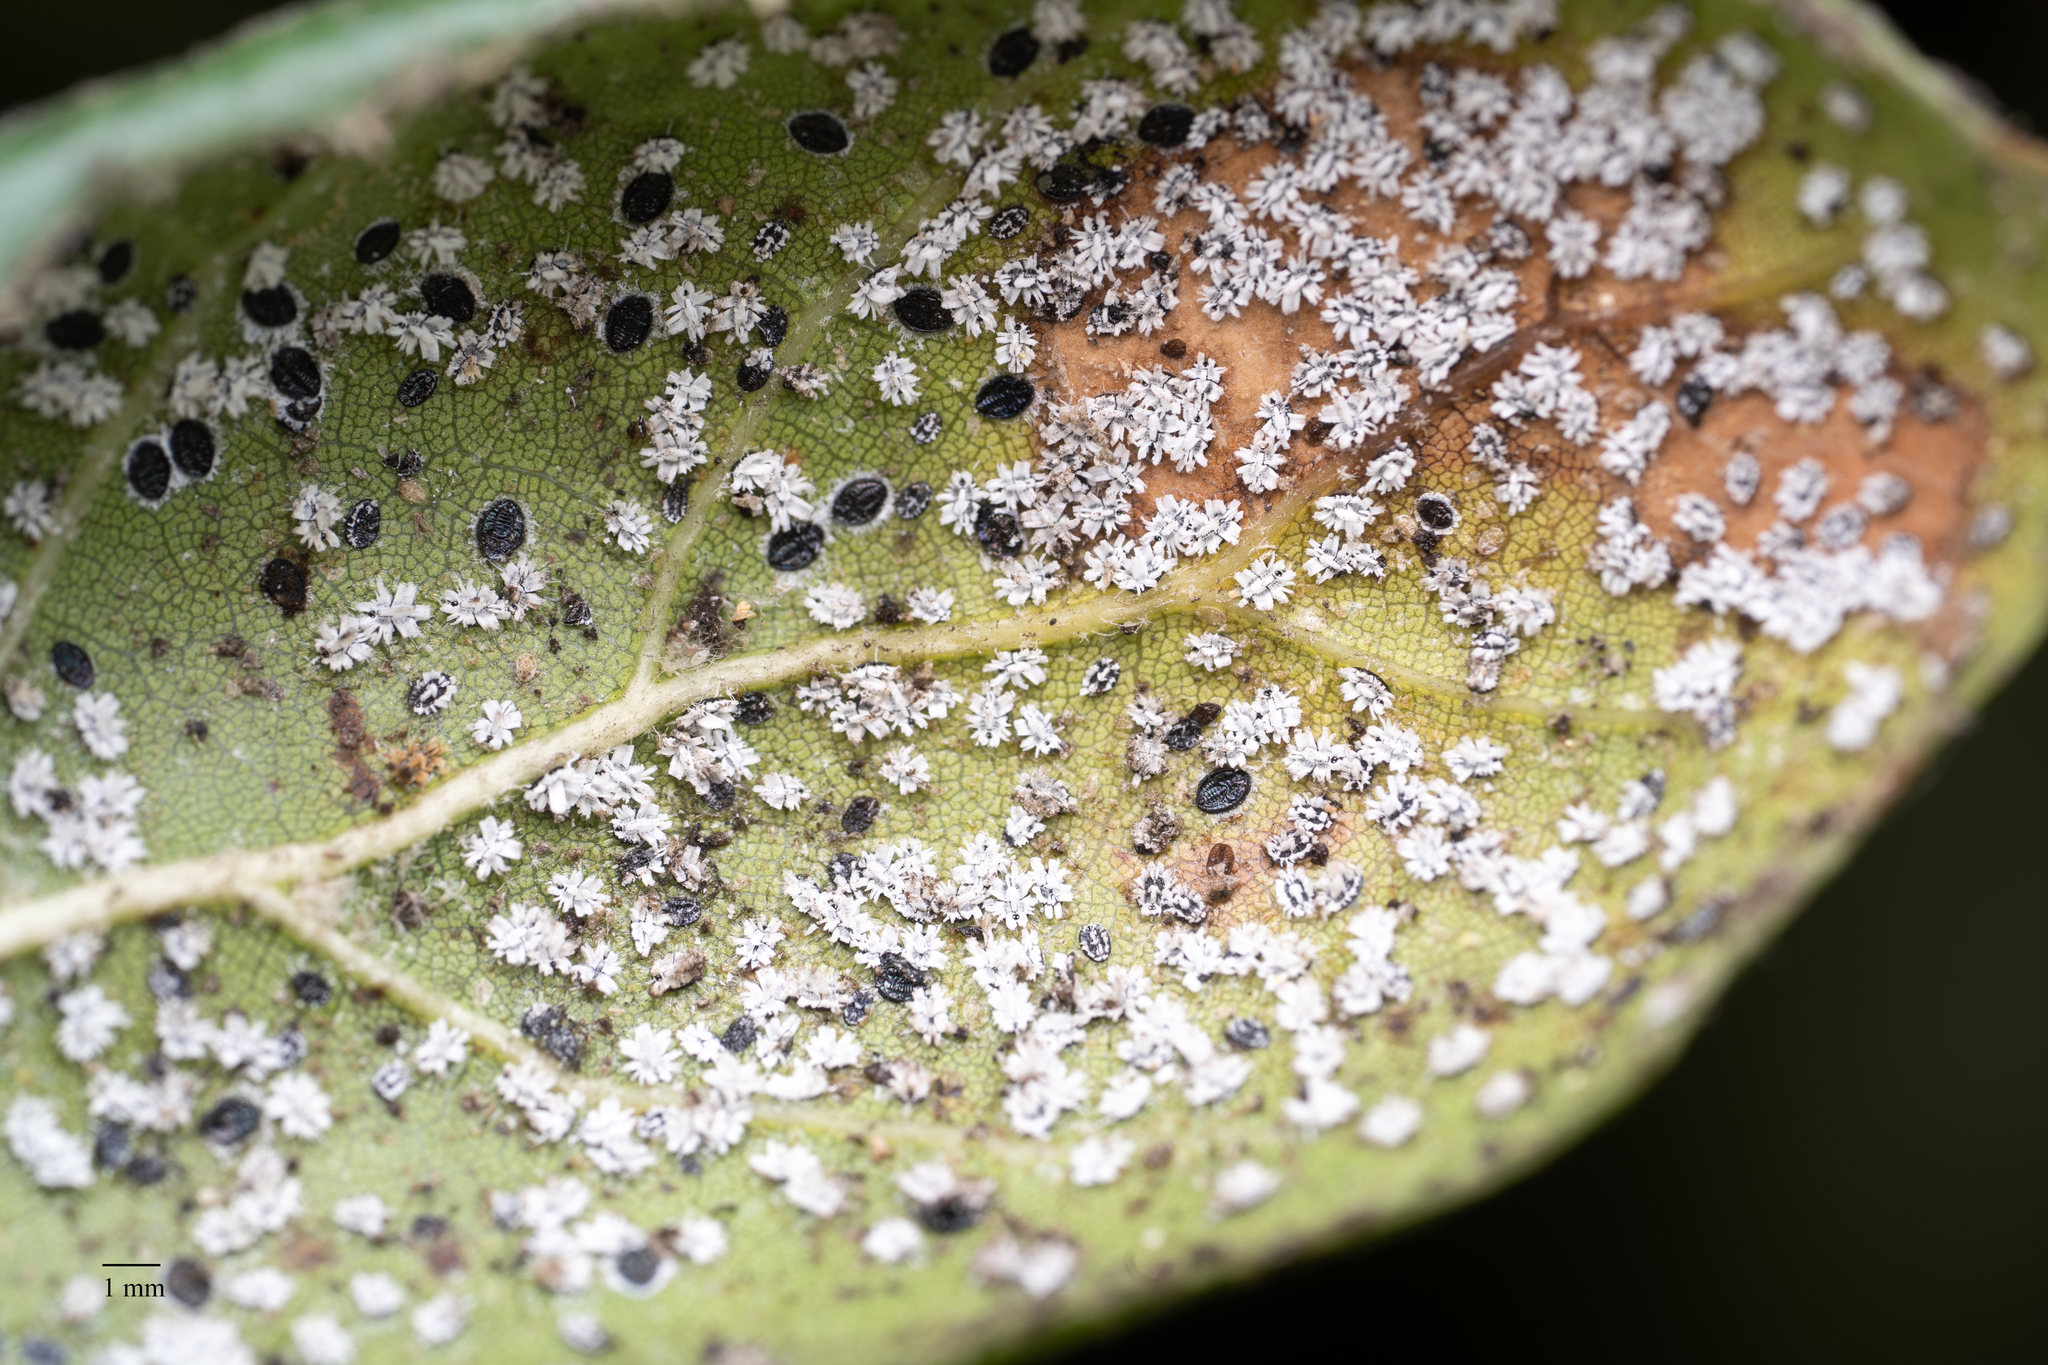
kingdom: Animalia
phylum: Arthropoda
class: Insecta
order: Hemiptera
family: Aleyrodidae
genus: Aleuroplatus
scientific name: Aleuroplatus coronata
